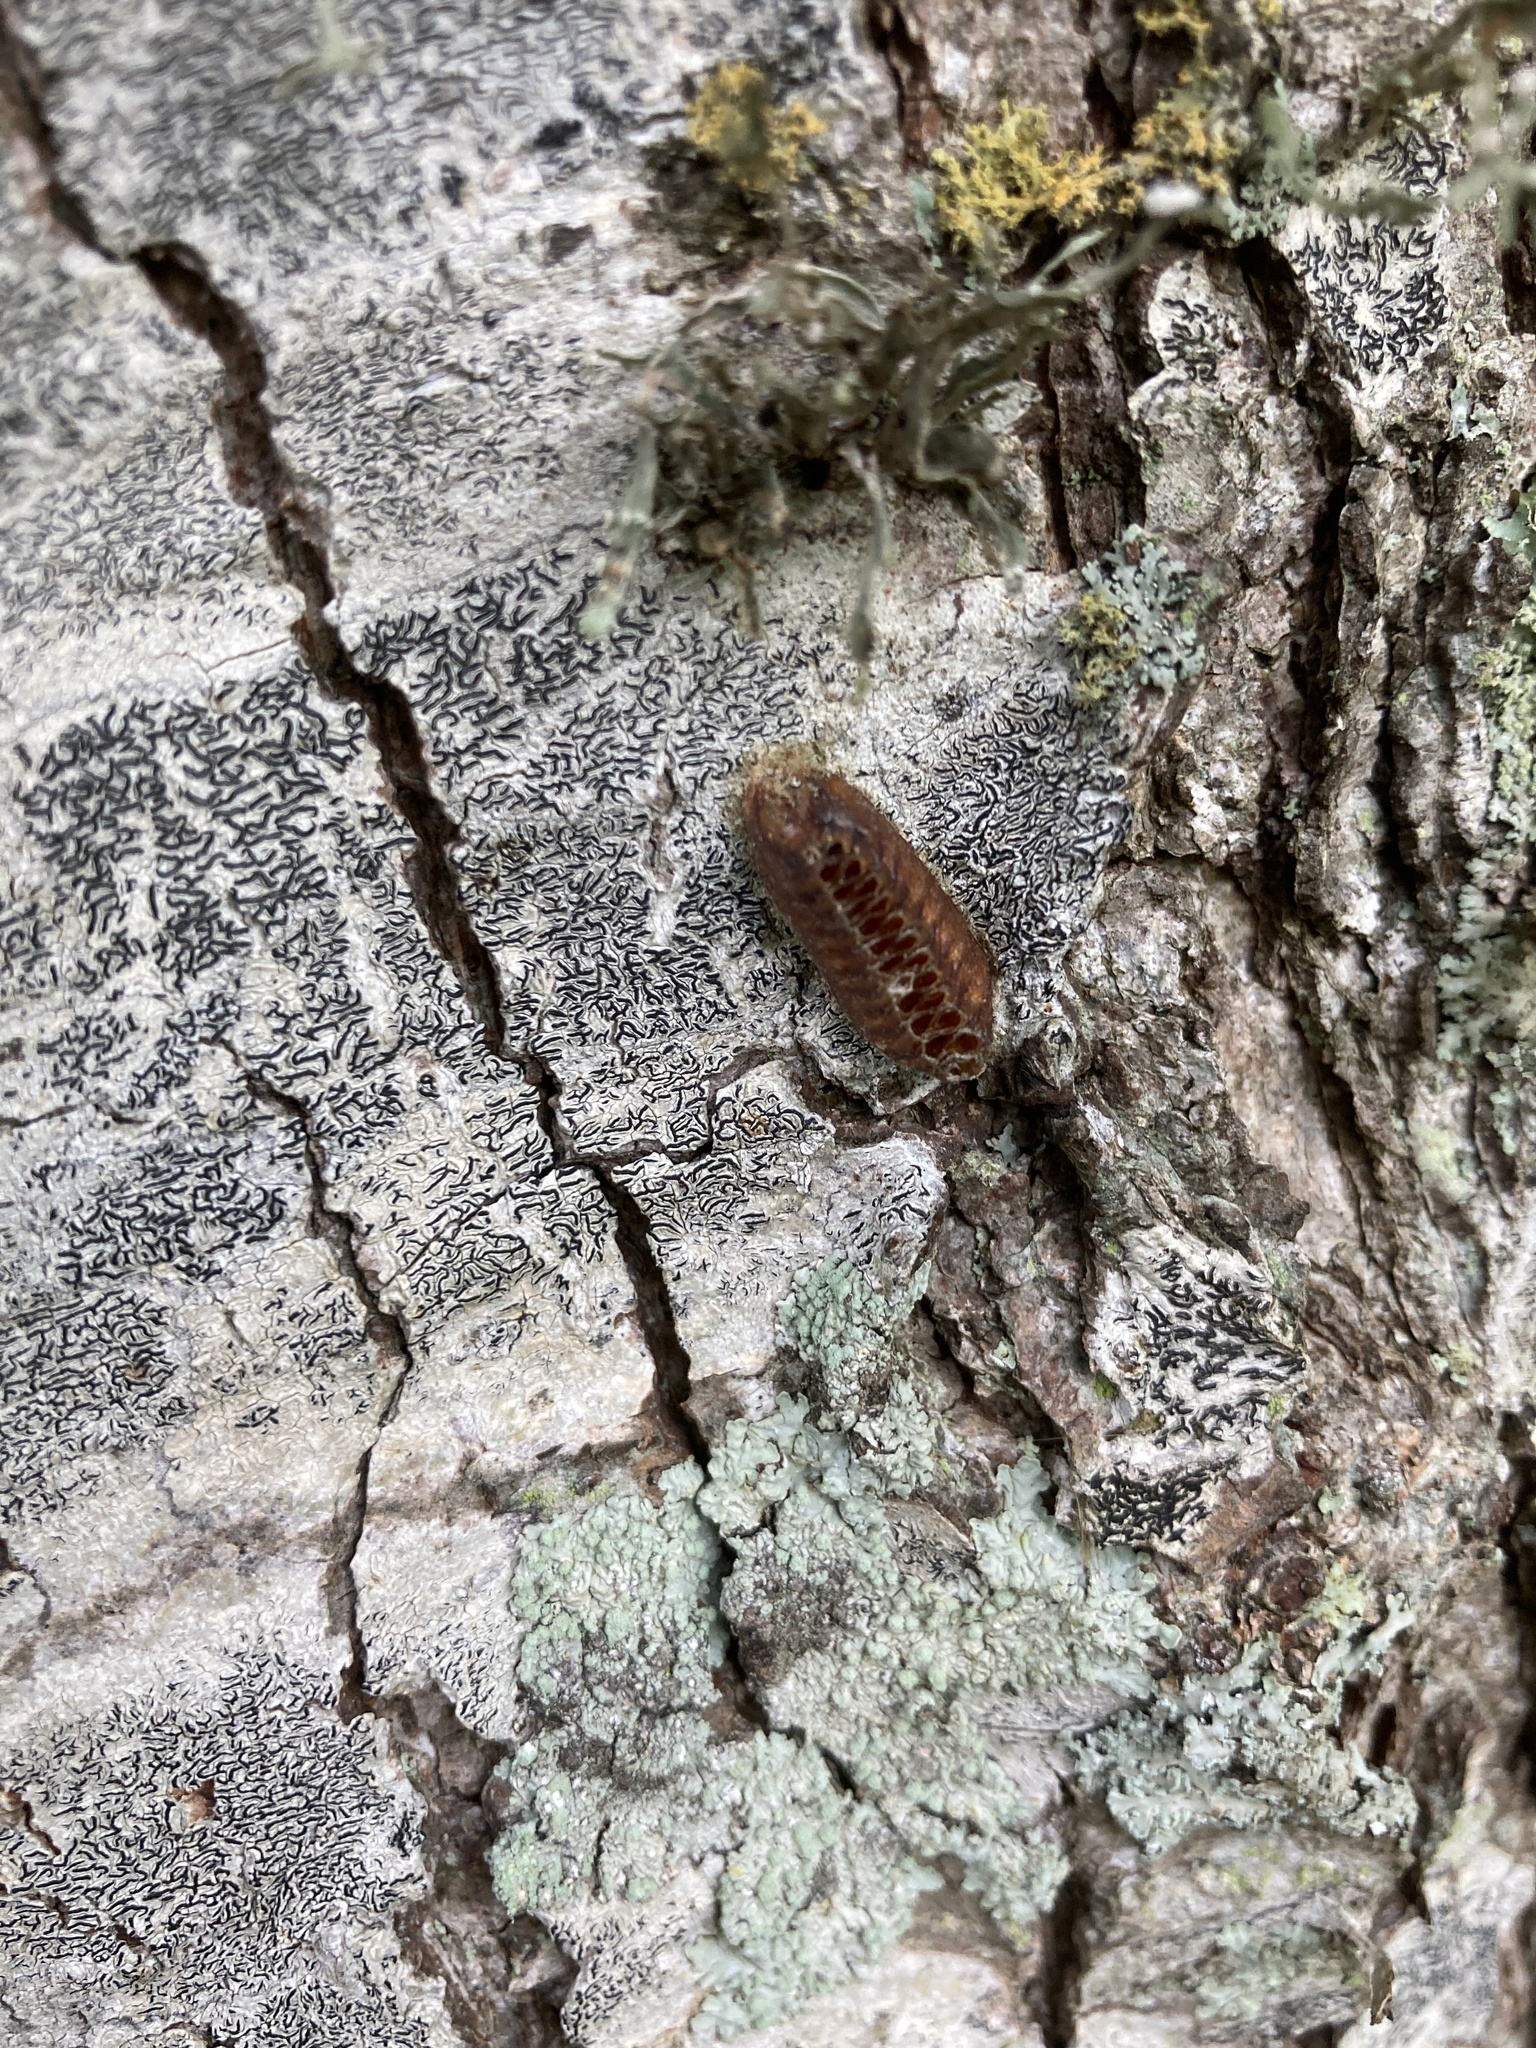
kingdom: Animalia
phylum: Arthropoda
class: Insecta
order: Mantodea
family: Mantidae
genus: Orthodera
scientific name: Orthodera novaezealandiae
